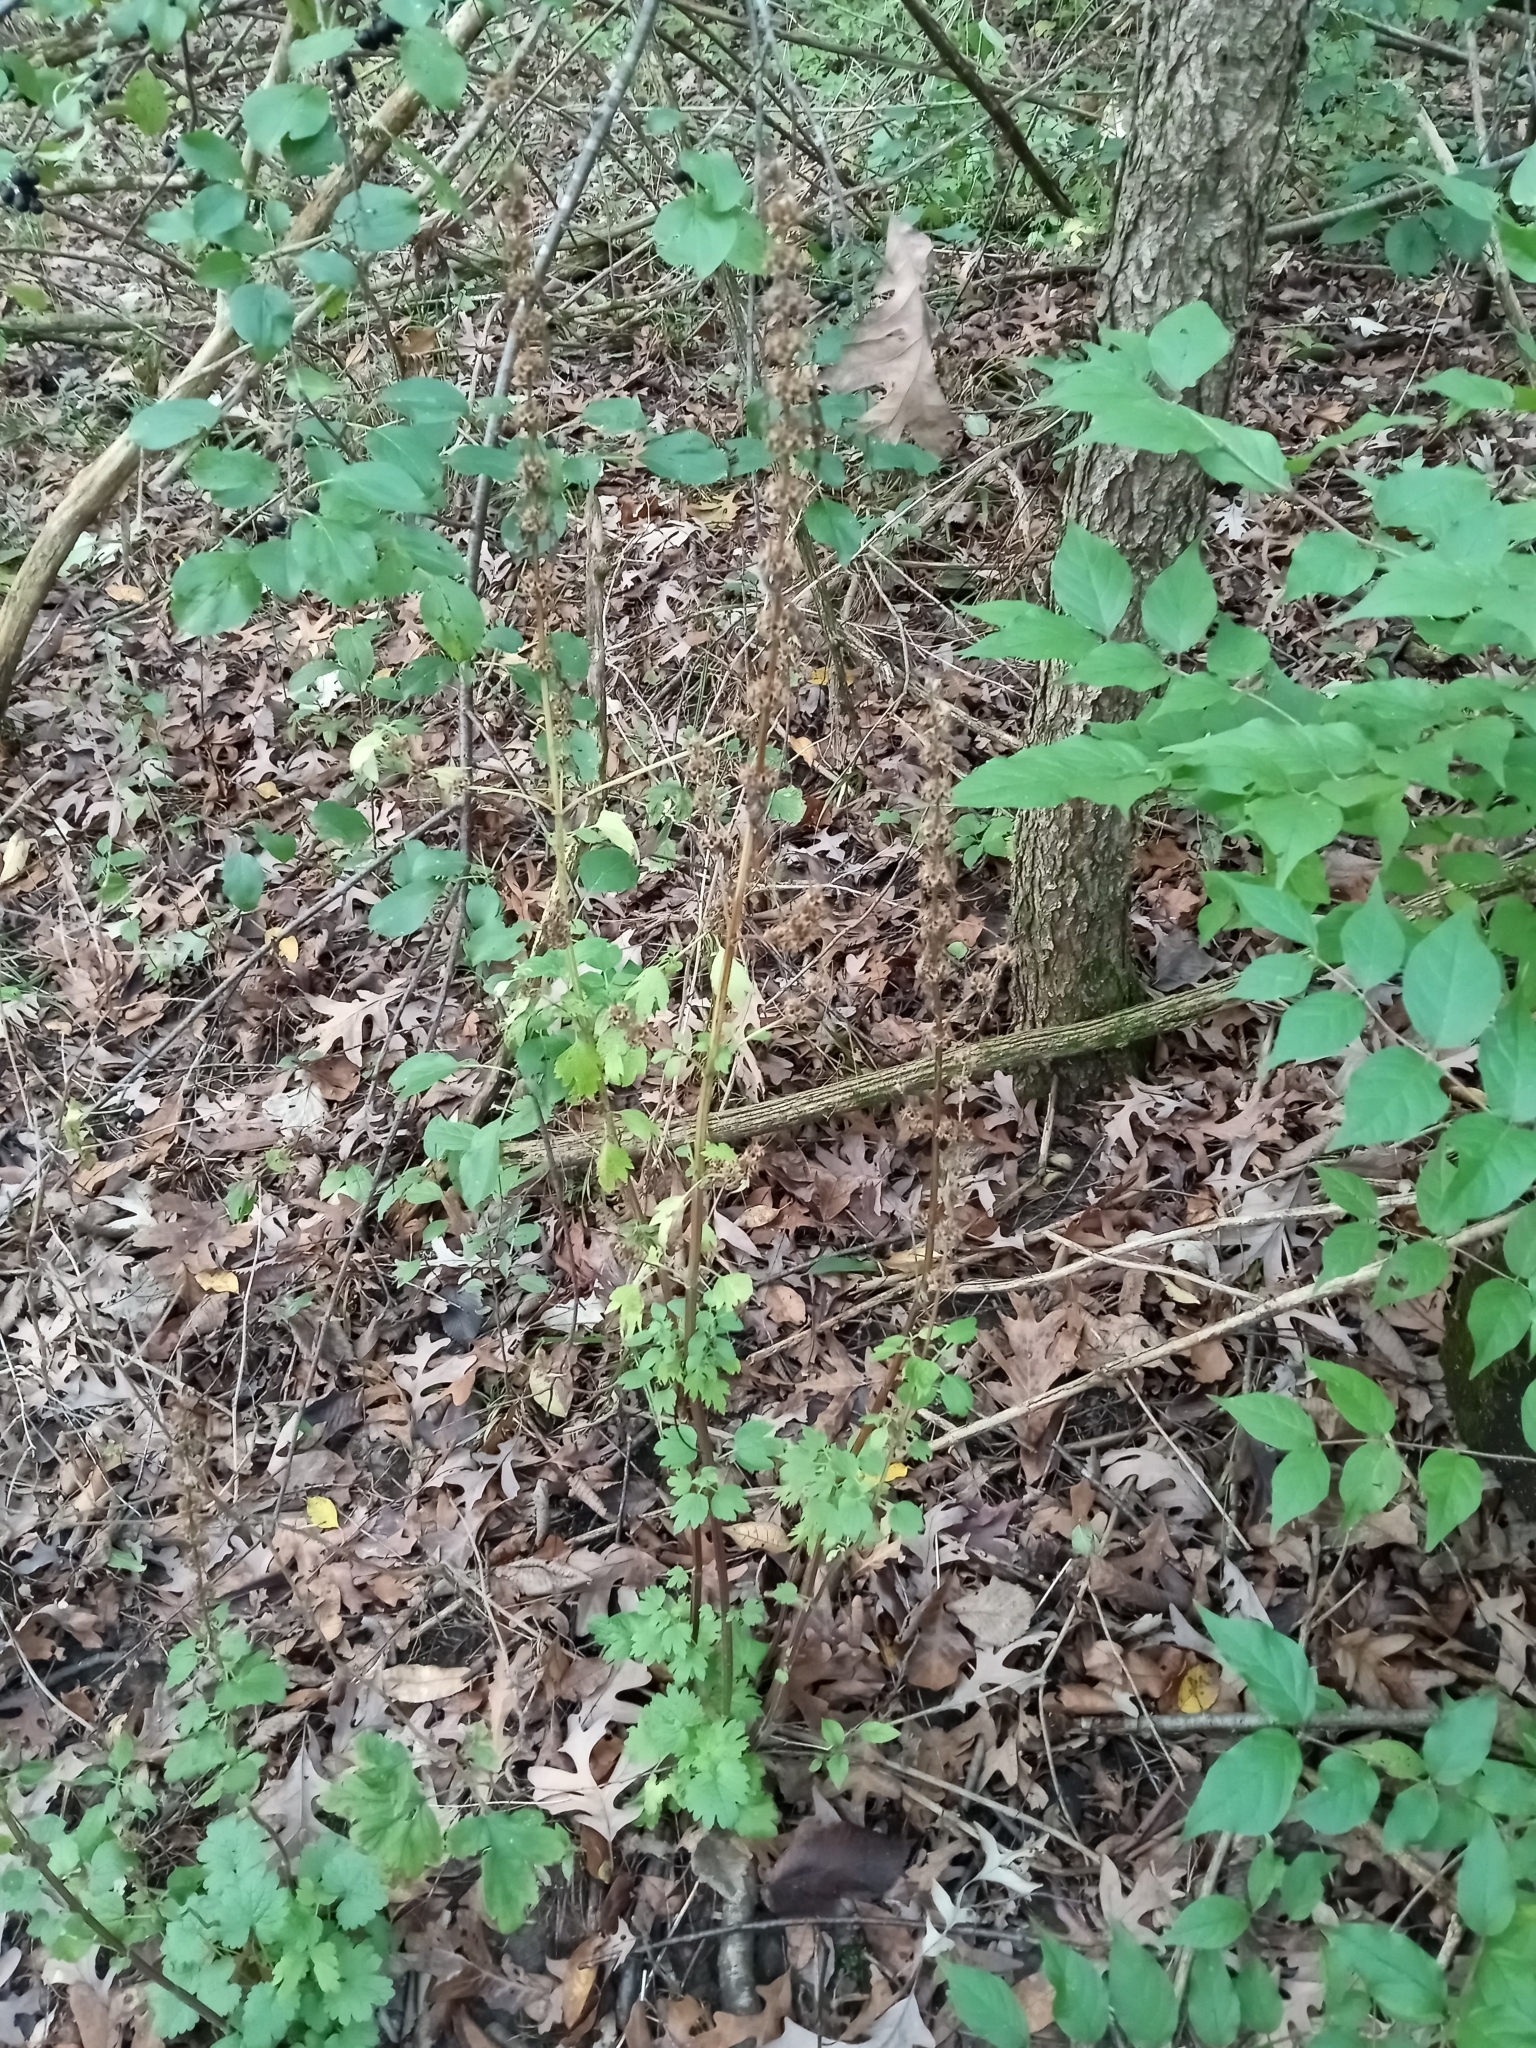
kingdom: Plantae
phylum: Tracheophyta
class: Magnoliopsida
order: Lamiales
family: Lamiaceae
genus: Leonurus
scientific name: Leonurus cardiaca
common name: Motherwort
